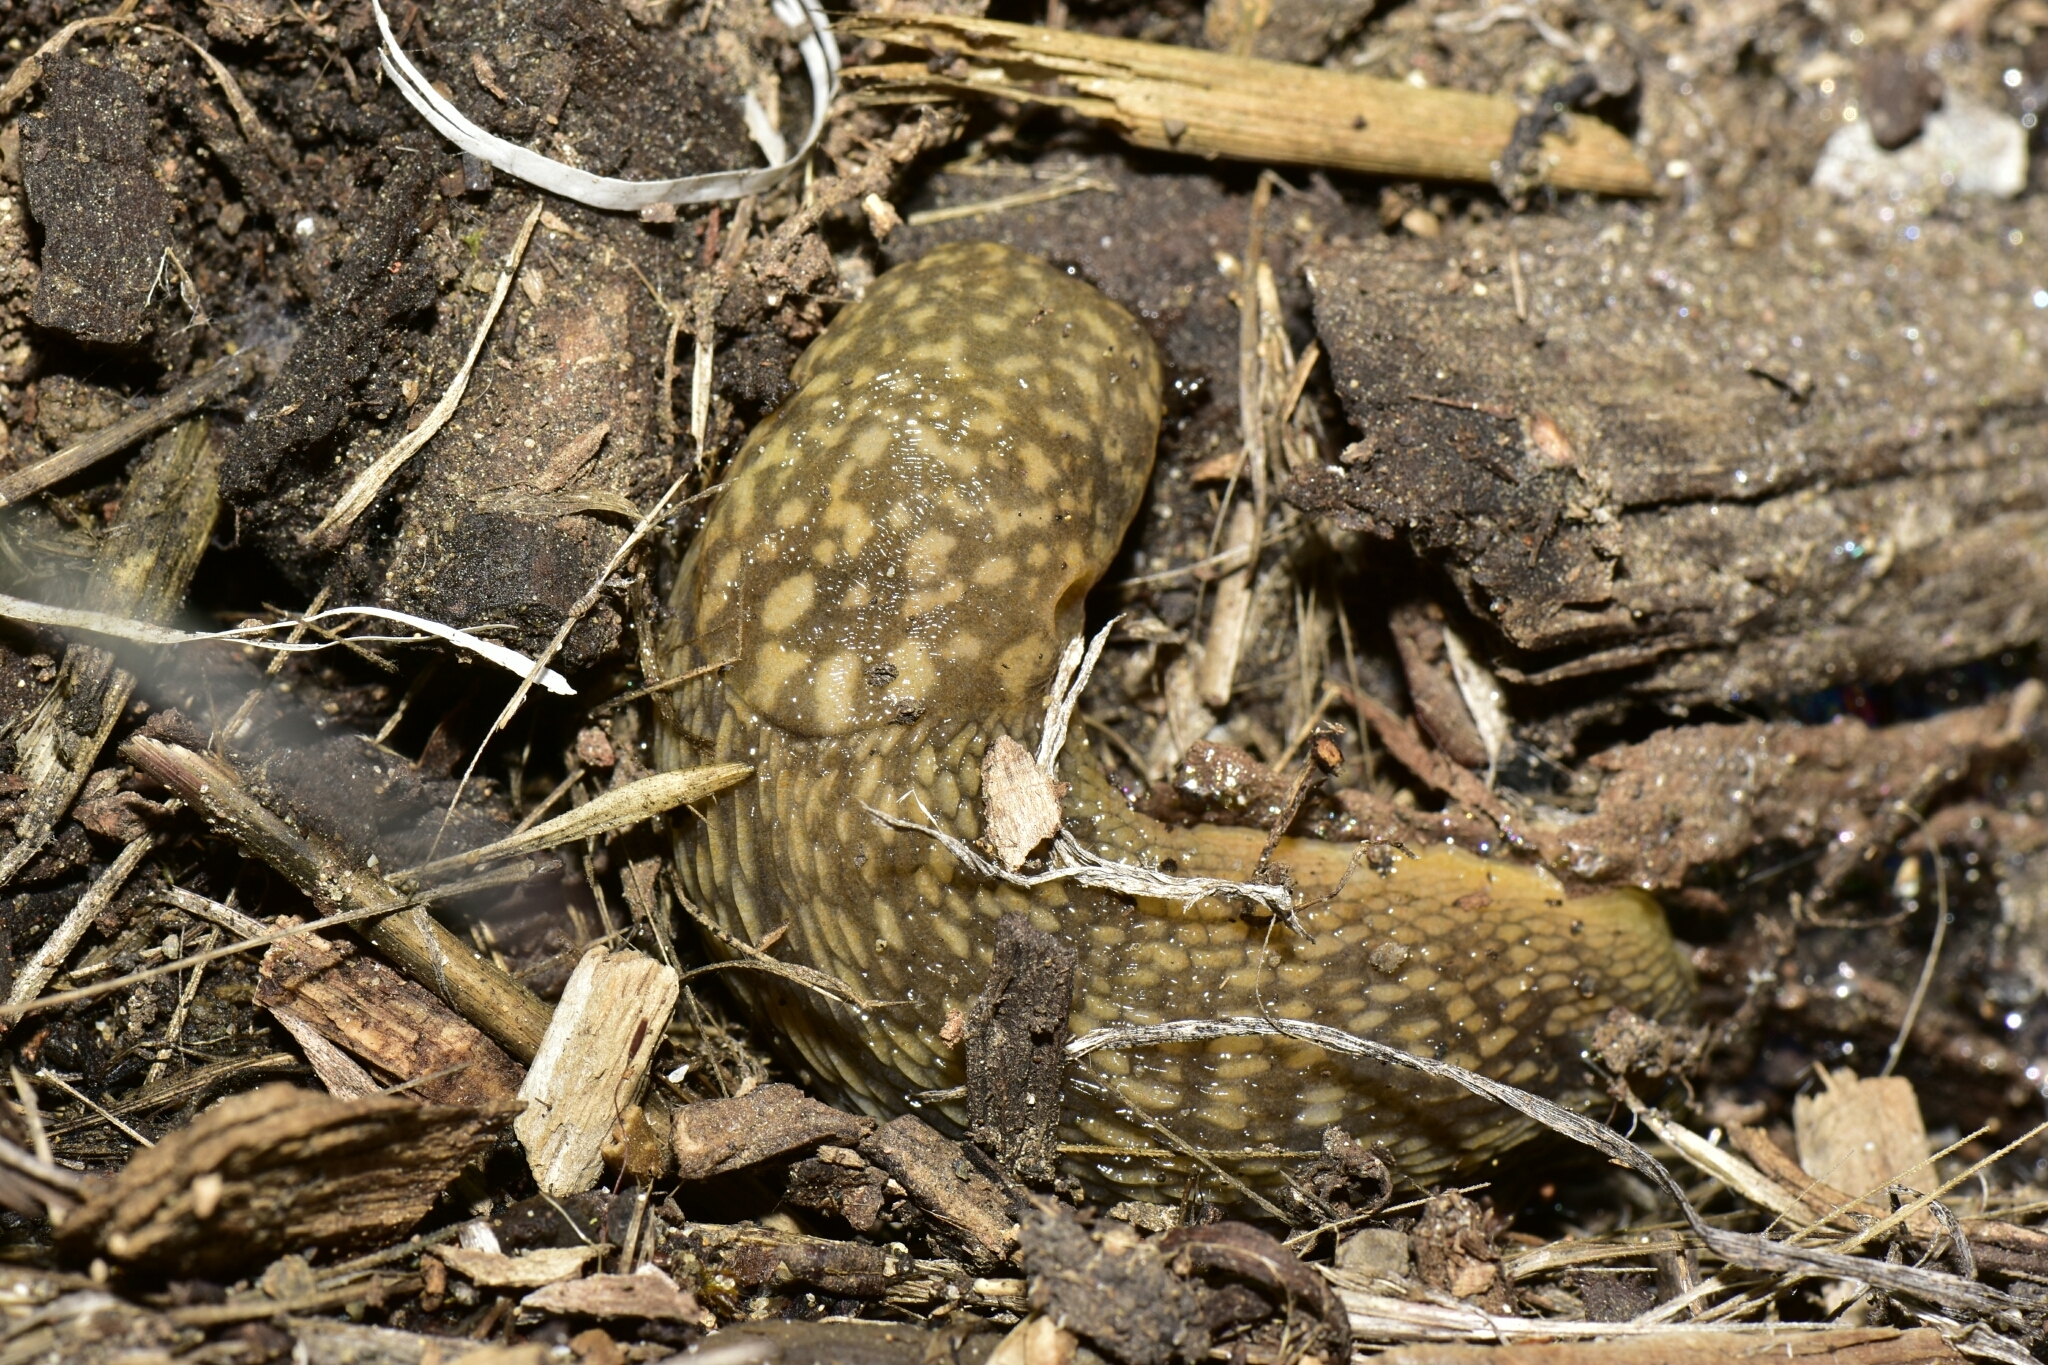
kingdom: Animalia
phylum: Mollusca
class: Gastropoda
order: Stylommatophora
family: Limacidae
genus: Limacus
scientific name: Limacus flavus
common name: Yellow gardenslug
